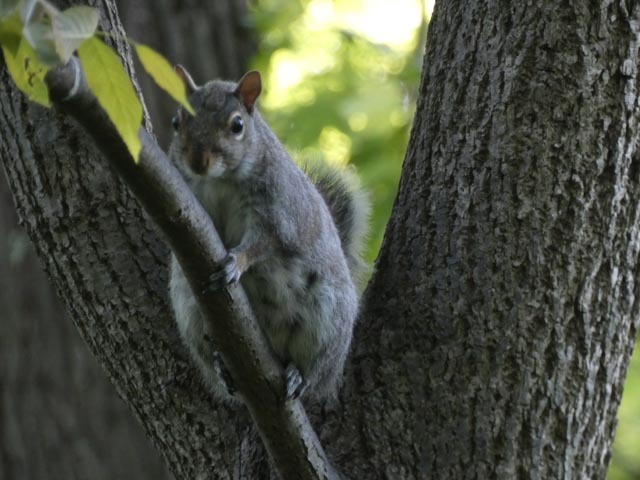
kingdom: Animalia
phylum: Chordata
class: Mammalia
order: Rodentia
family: Sciuridae
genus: Sciurus
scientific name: Sciurus carolinensis
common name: Eastern gray squirrel
